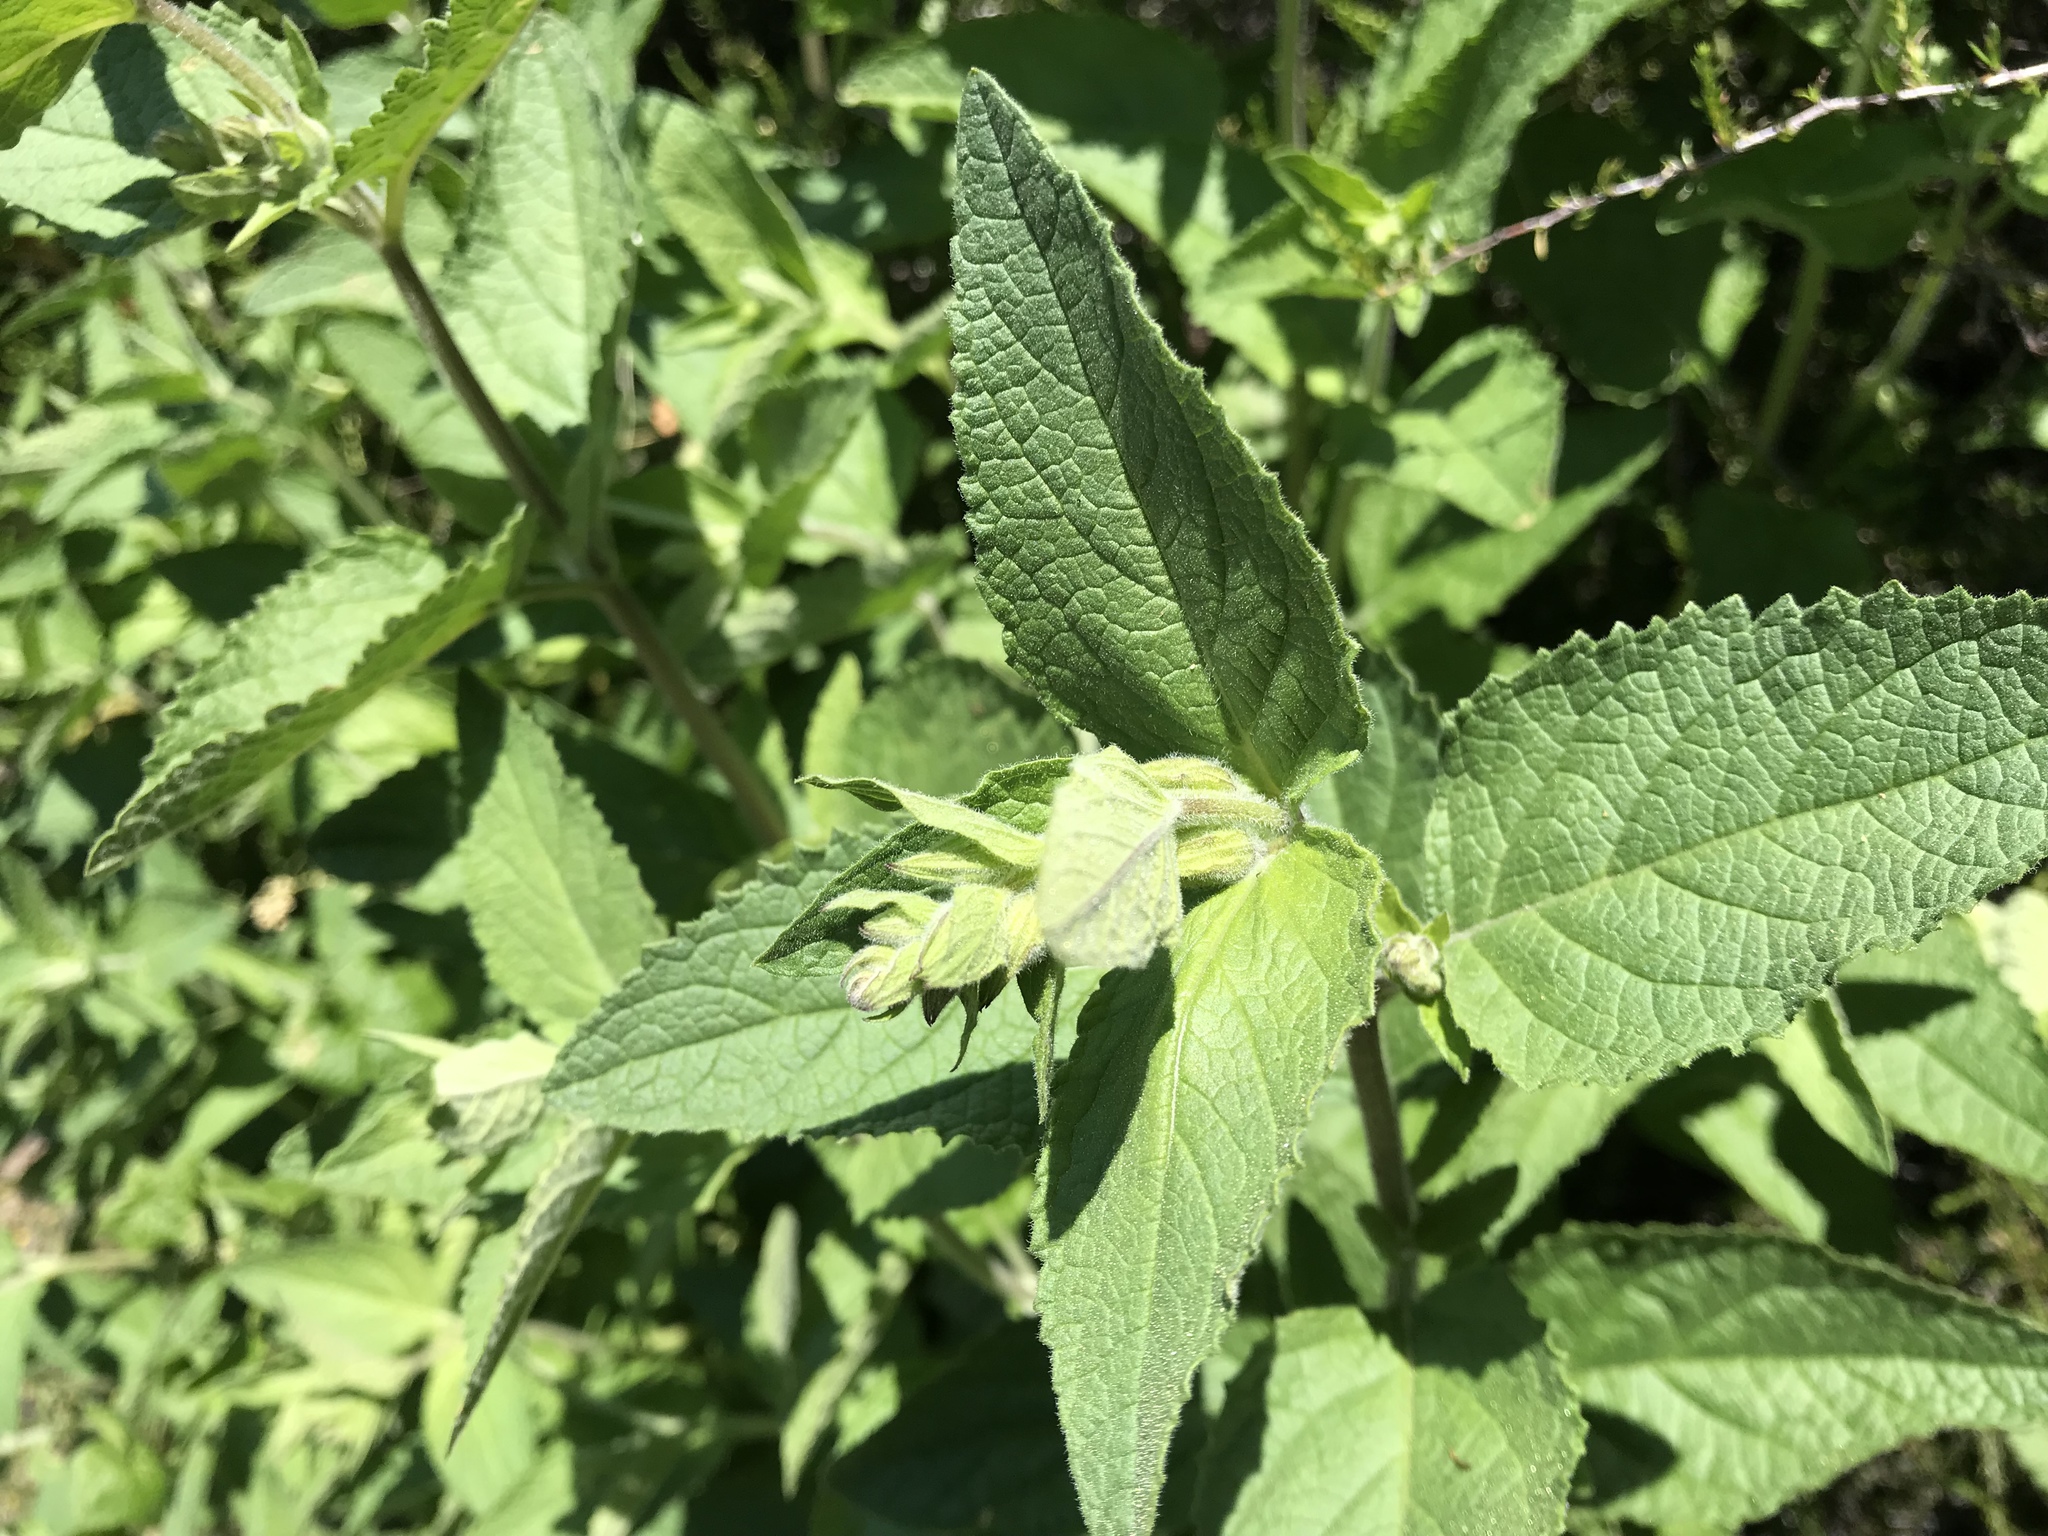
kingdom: Plantae
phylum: Tracheophyta
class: Magnoliopsida
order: Lamiales
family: Lamiaceae
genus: Lepechinia
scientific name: Lepechinia calycina
